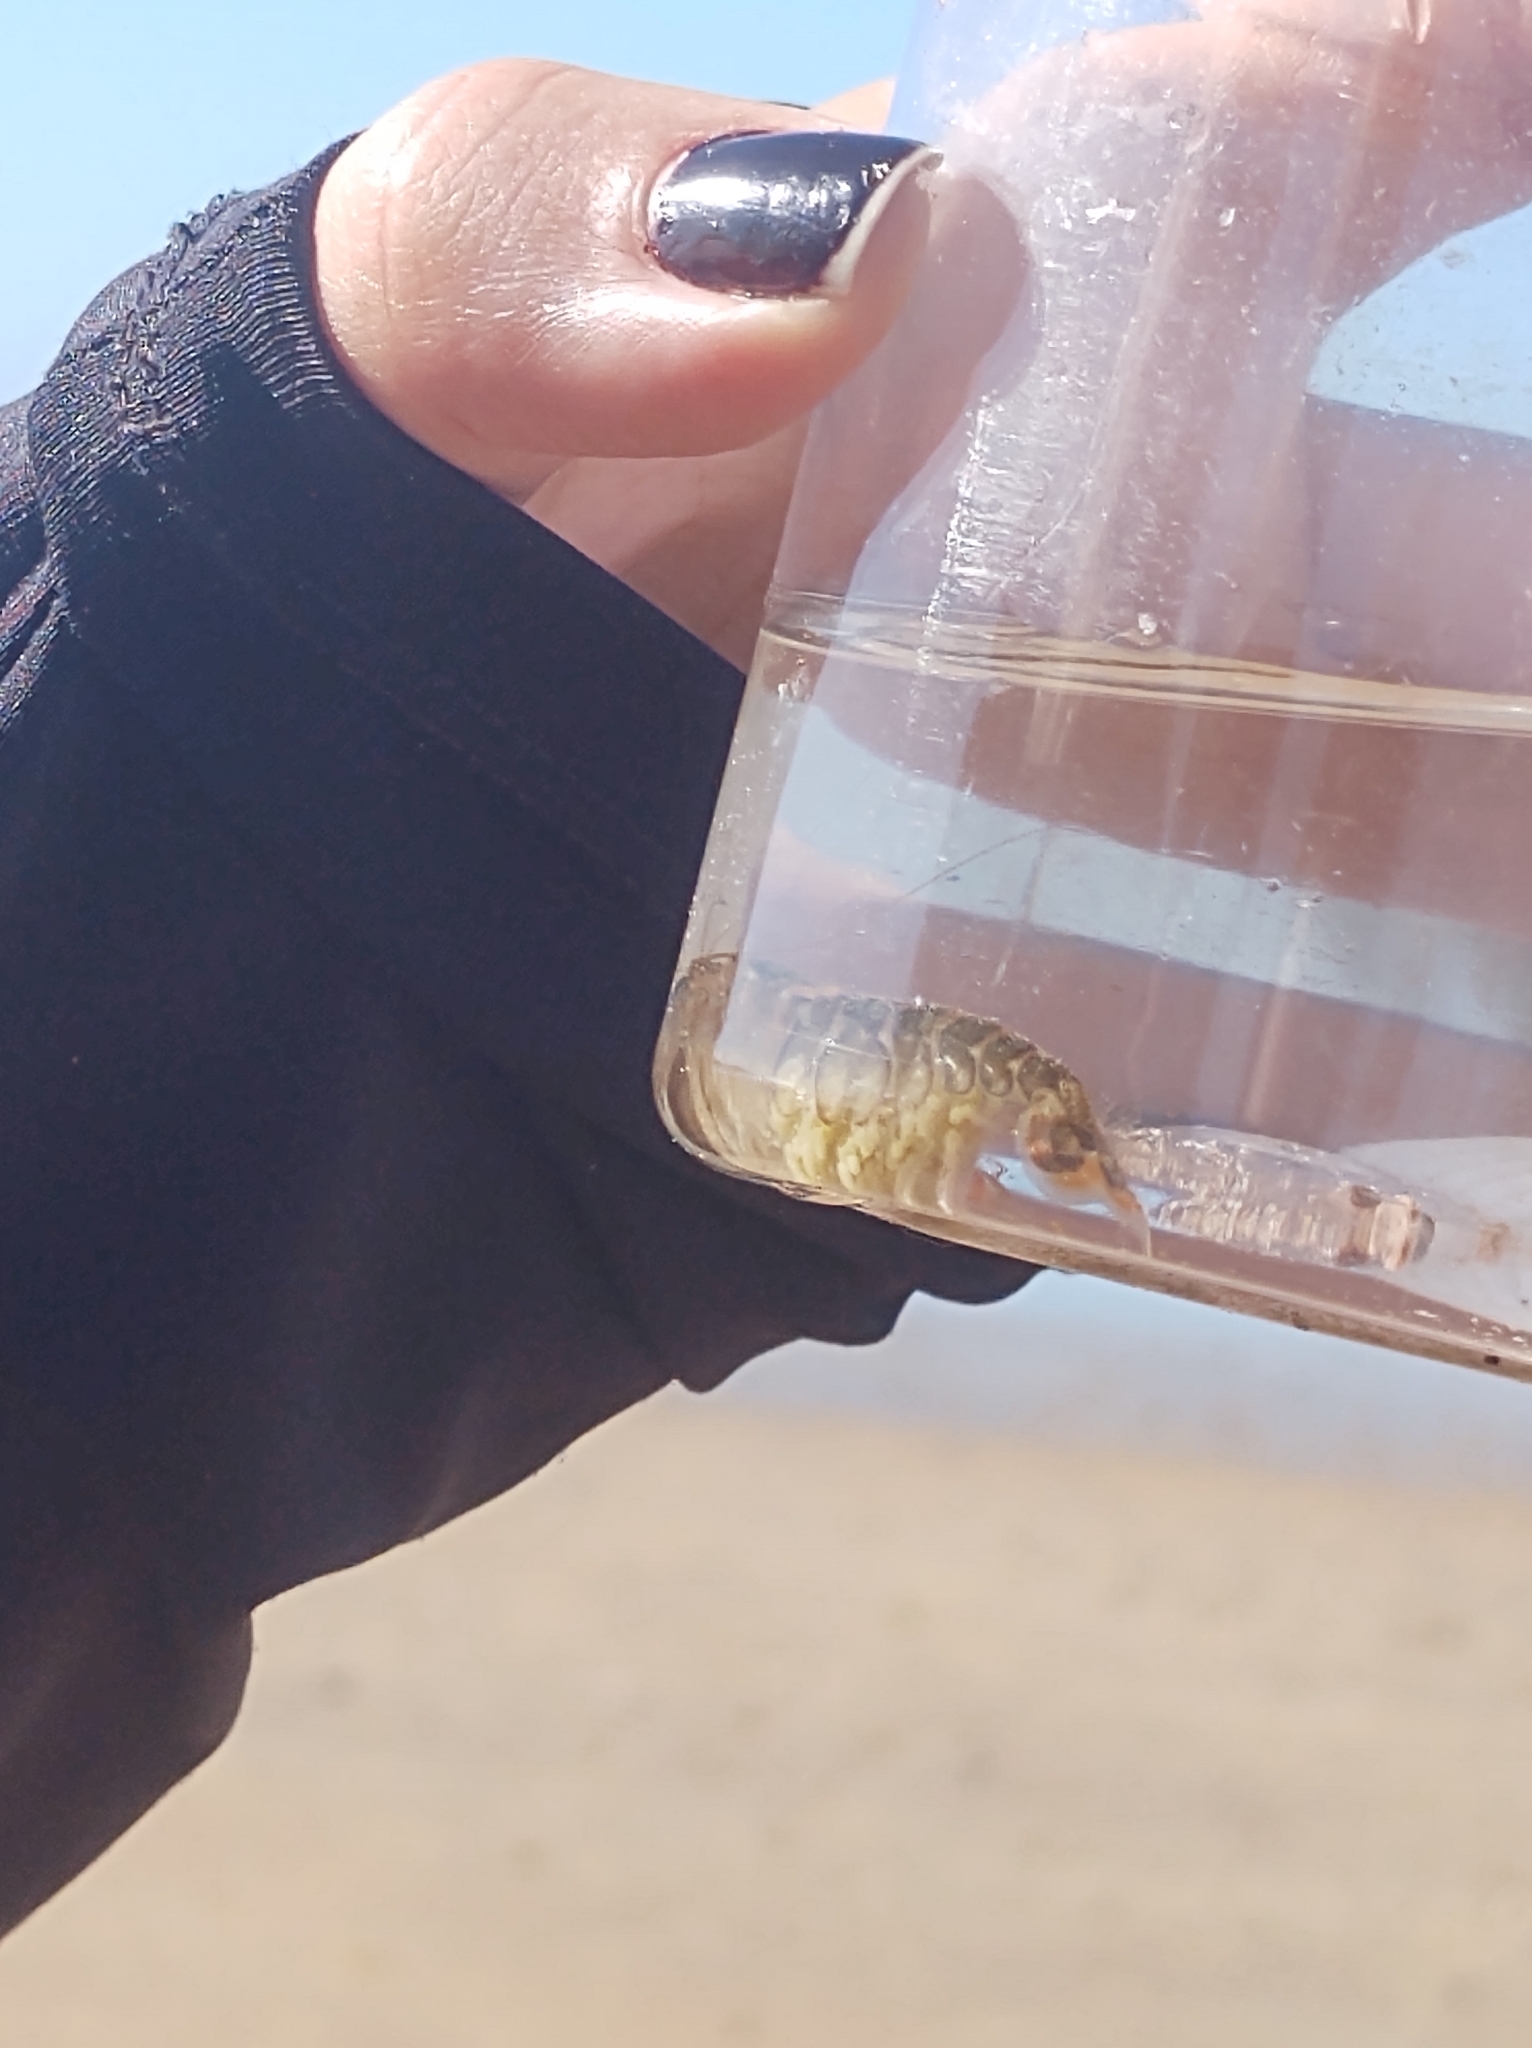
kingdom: Animalia
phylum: Arthropoda
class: Malacostraca
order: Decapoda
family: Alpheidae
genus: Alpheus
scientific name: Alpheus richardsoni
